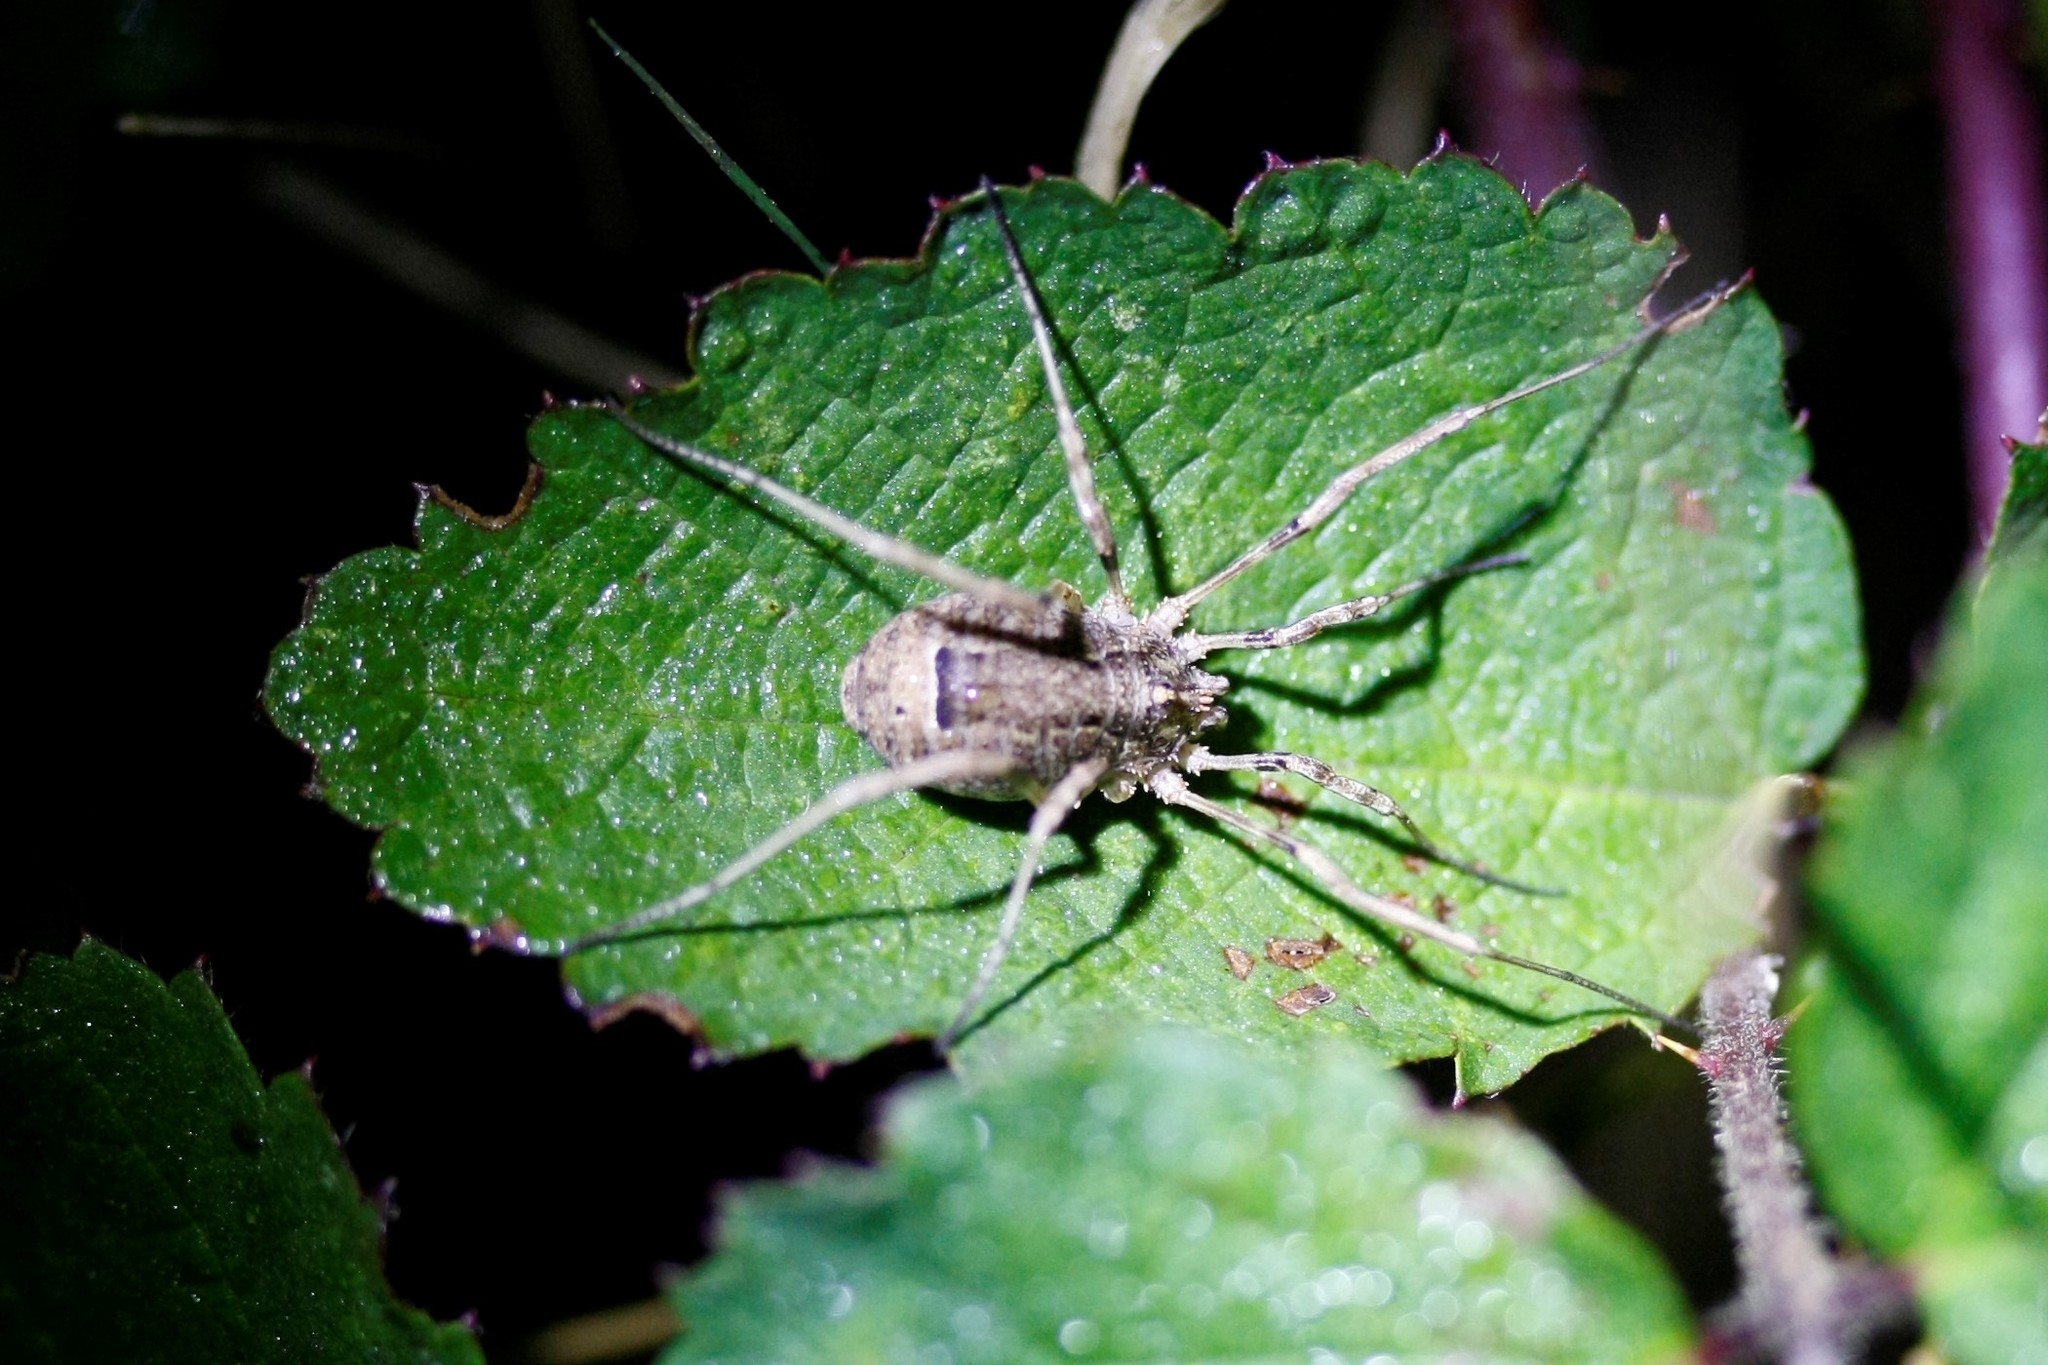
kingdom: Animalia
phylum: Arthropoda
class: Arachnida
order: Opiliones
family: Phalangiidae
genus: Odiellus
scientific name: Odiellus spinosus
